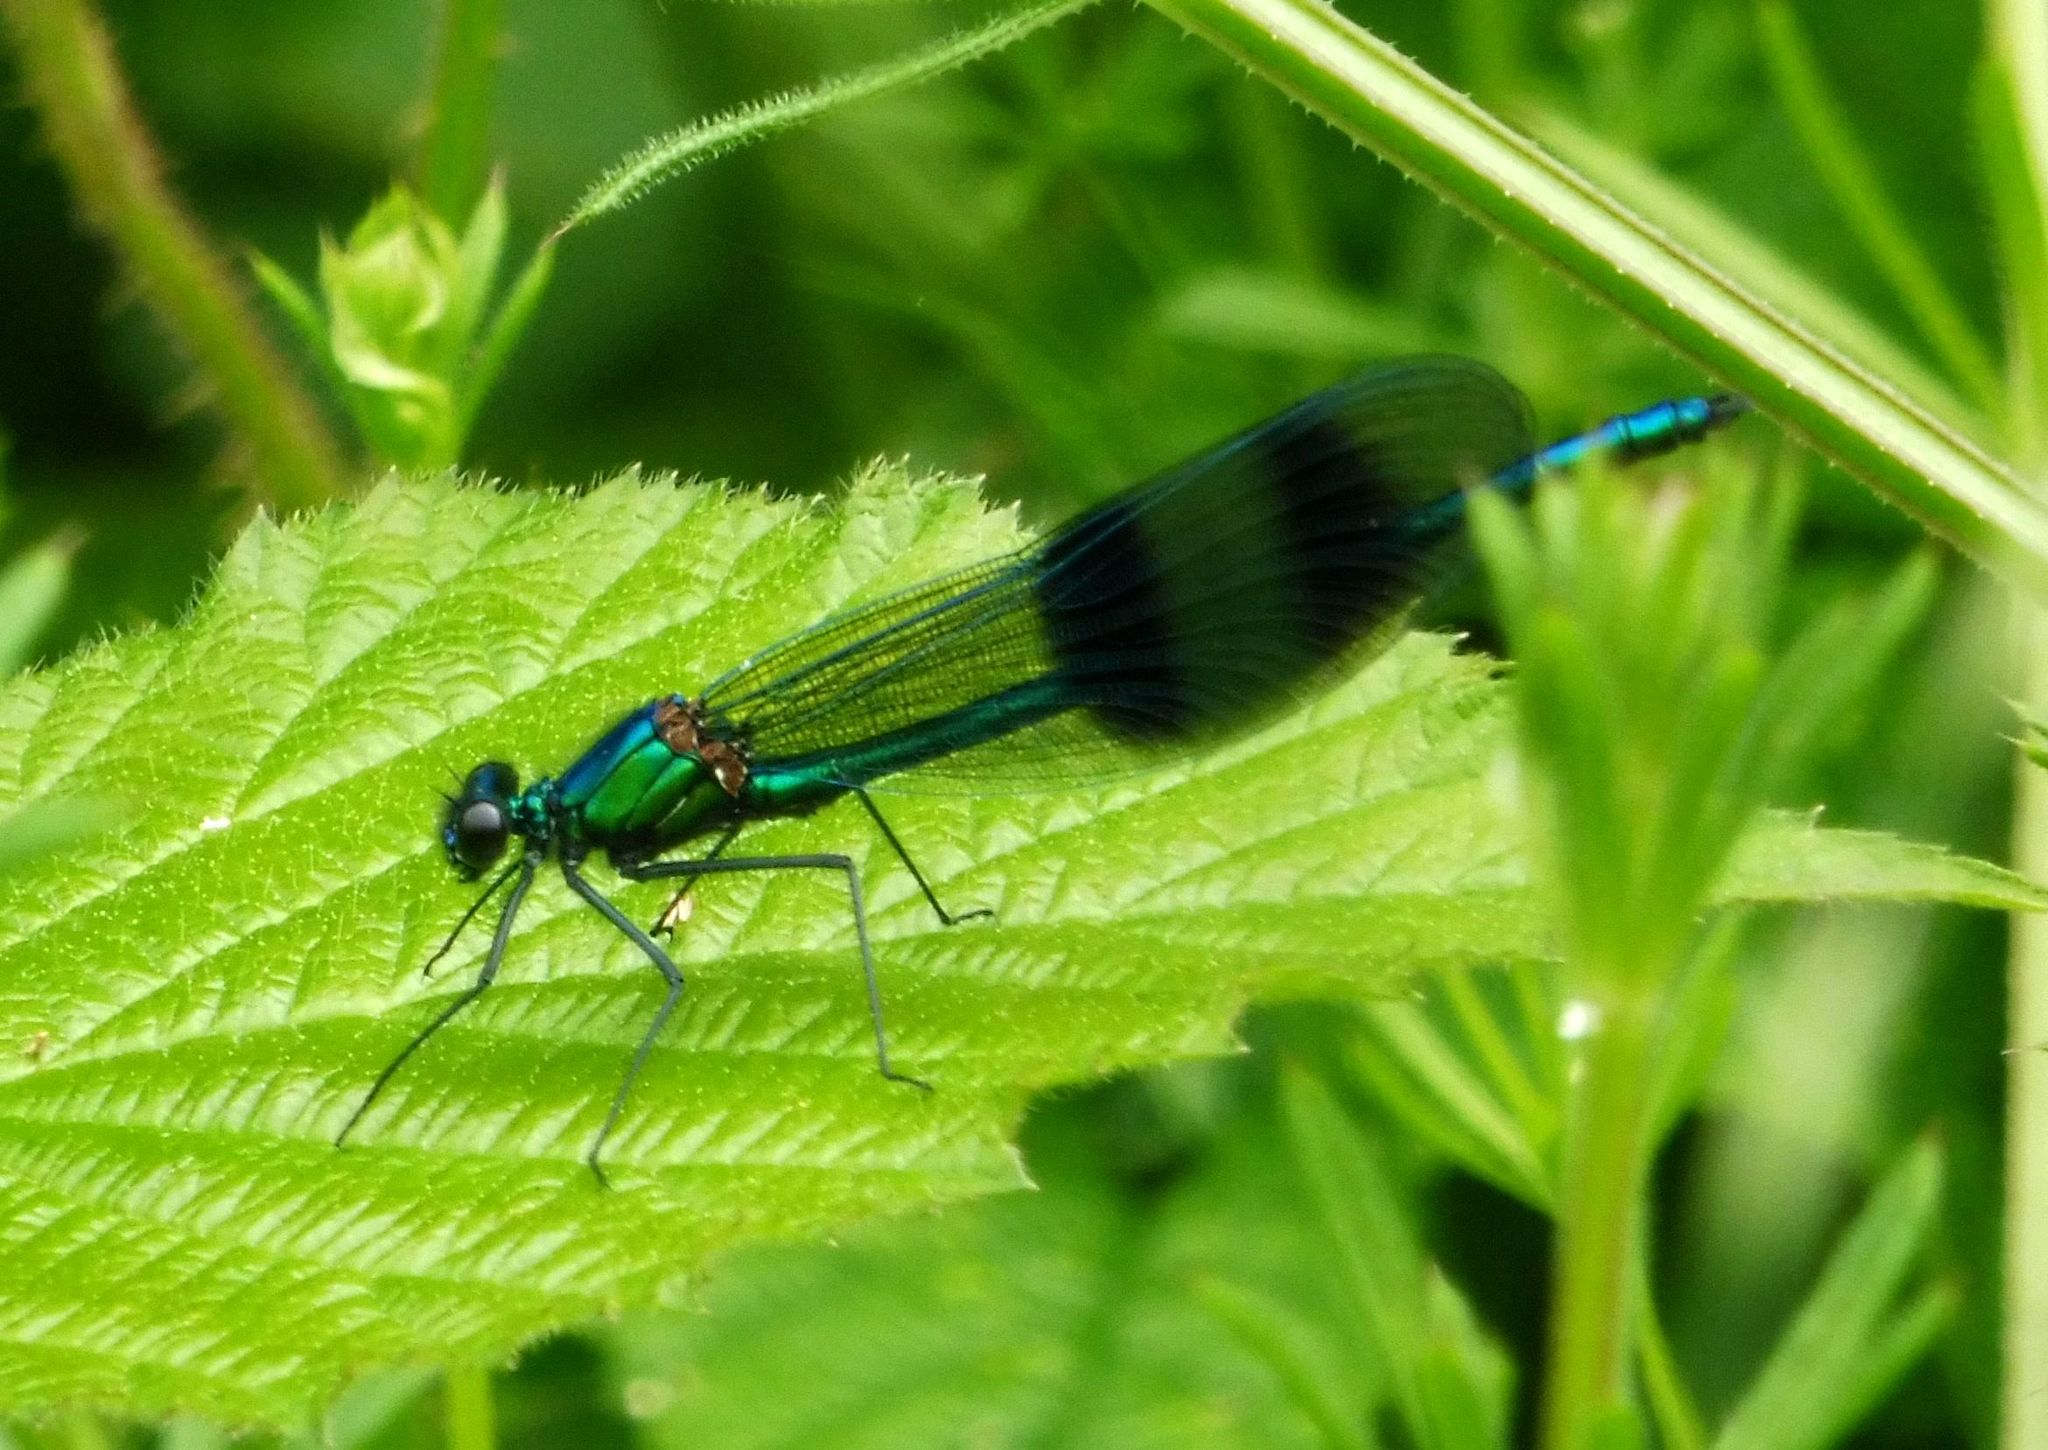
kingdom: Animalia
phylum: Arthropoda
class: Insecta
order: Odonata
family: Calopterygidae
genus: Calopteryx
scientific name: Calopteryx splendens
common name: Banded demoiselle
